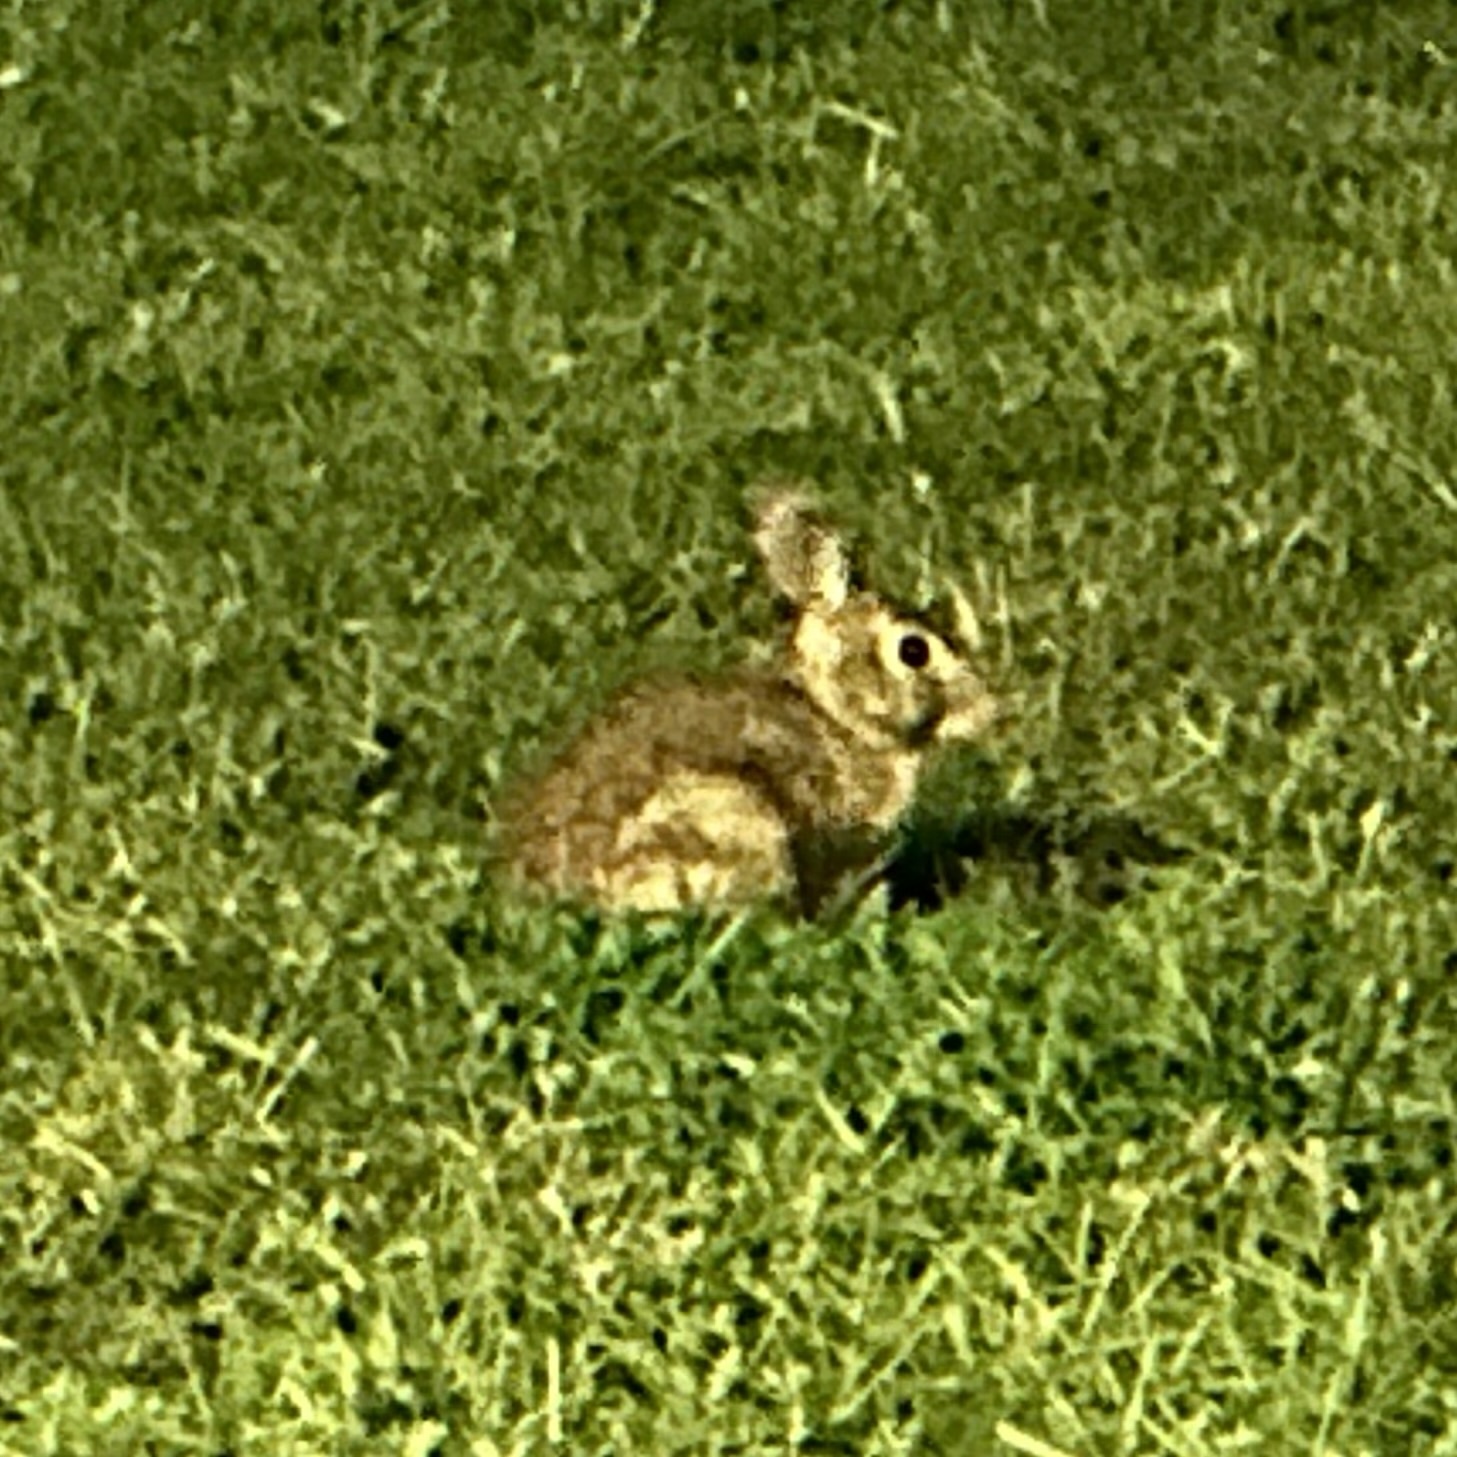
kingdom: Animalia
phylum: Chordata
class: Mammalia
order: Lagomorpha
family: Leporidae
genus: Sylvilagus
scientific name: Sylvilagus floridanus
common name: Eastern cottontail
